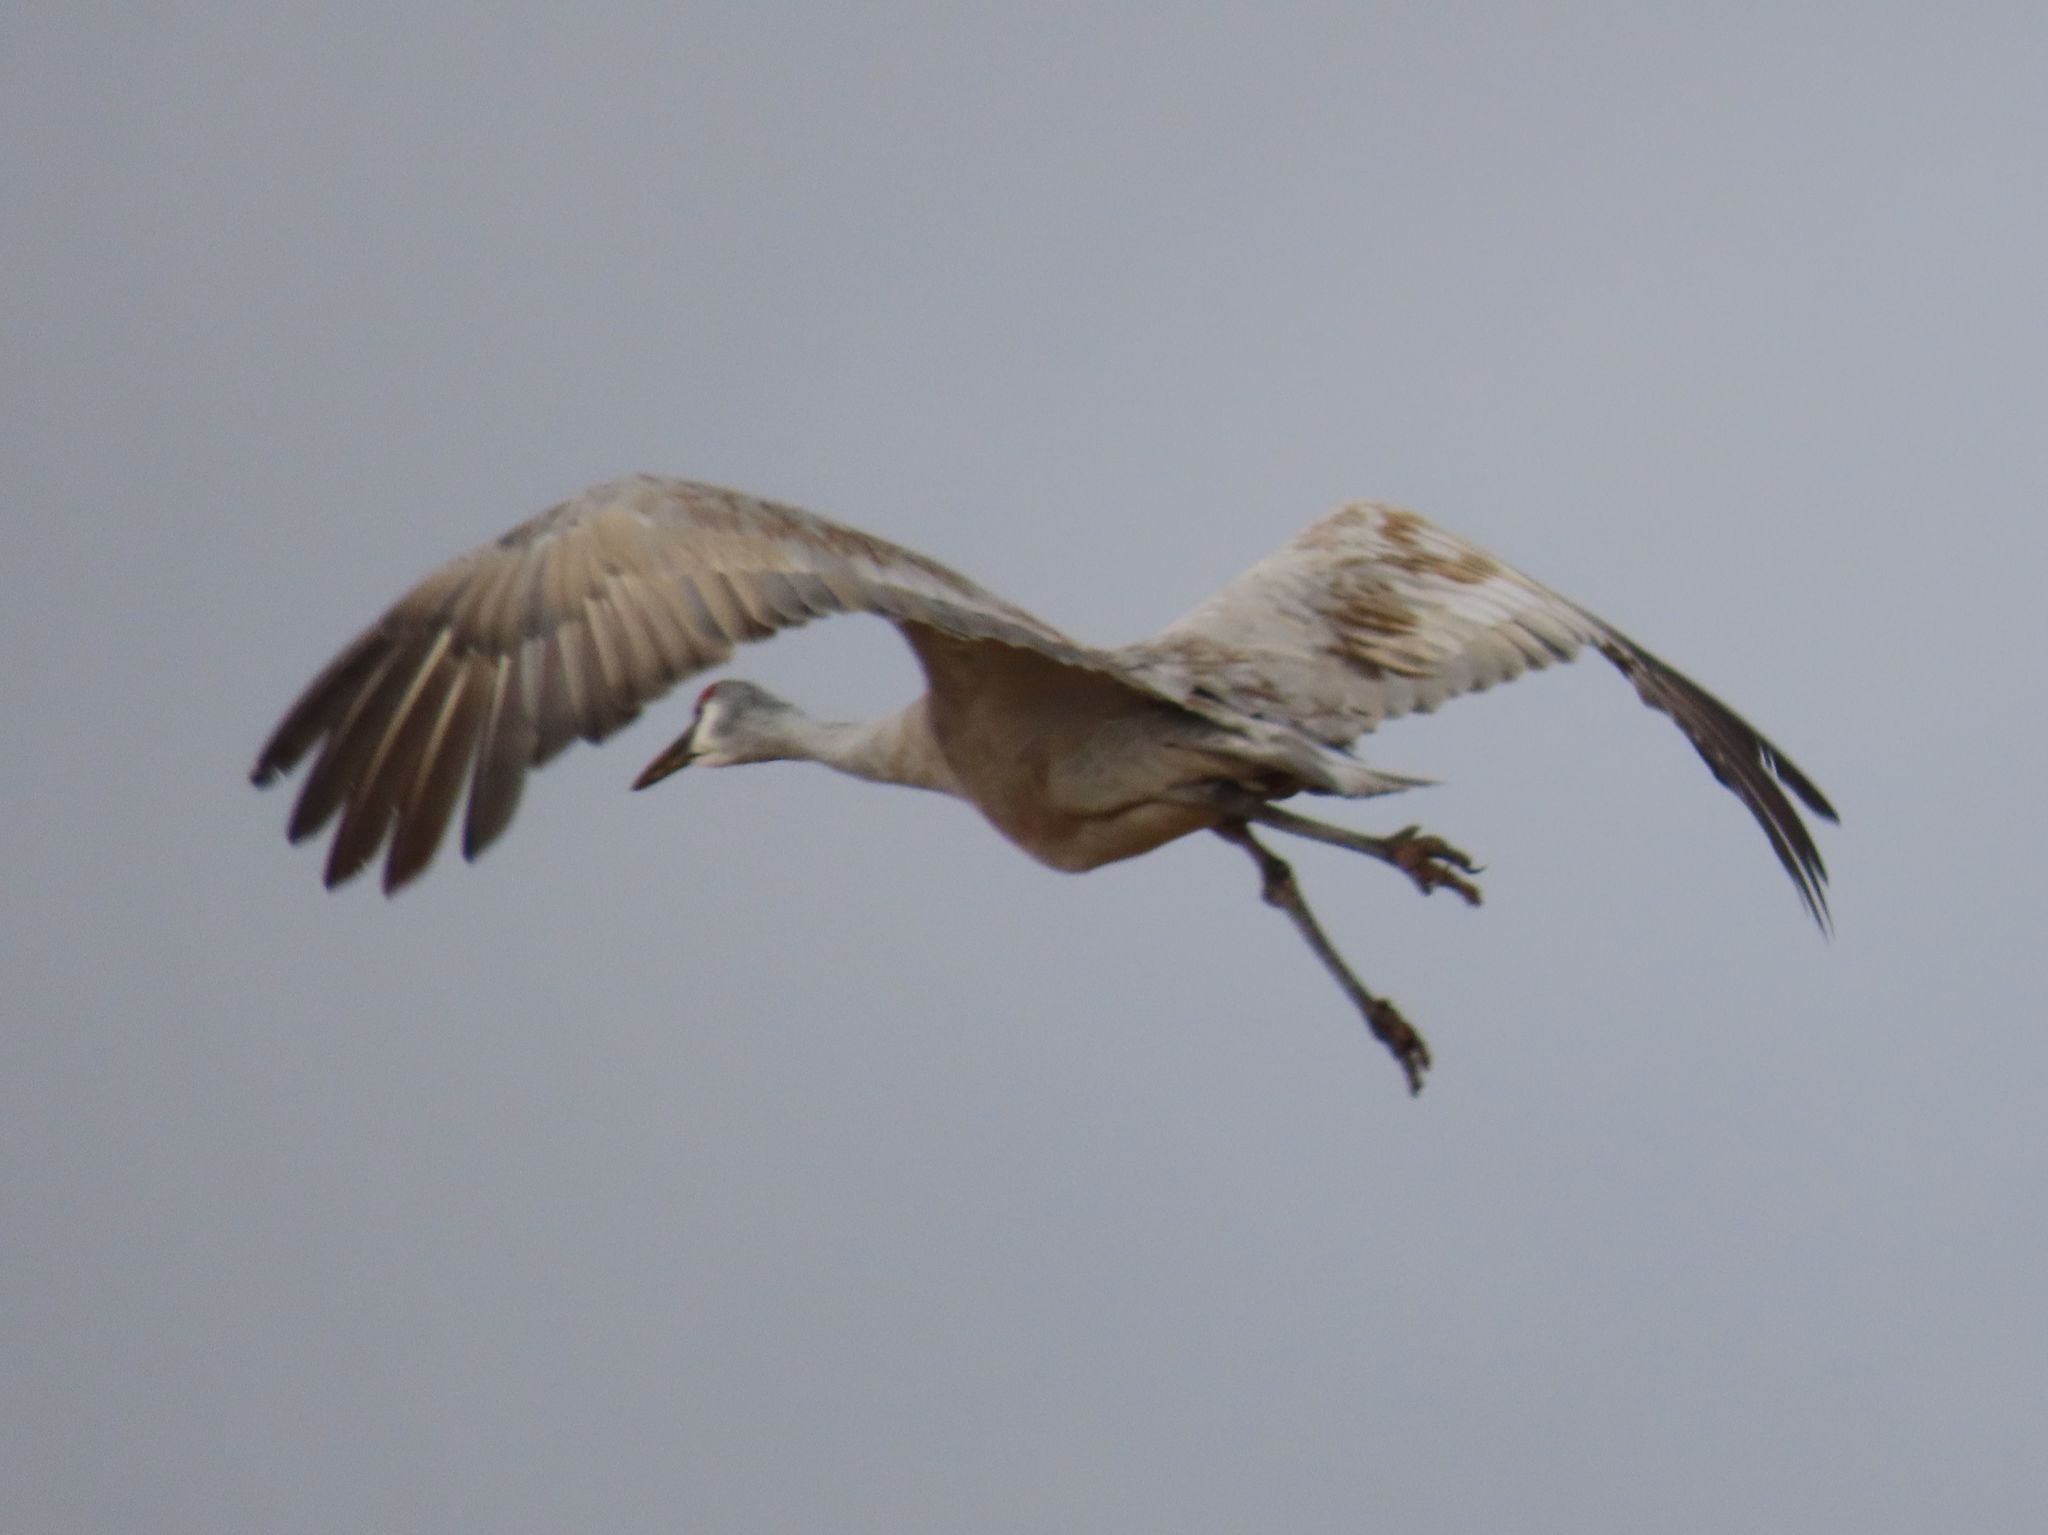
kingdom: Animalia
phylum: Chordata
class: Aves
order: Gruiformes
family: Gruidae
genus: Grus
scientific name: Grus canadensis
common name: Sandhill crane
